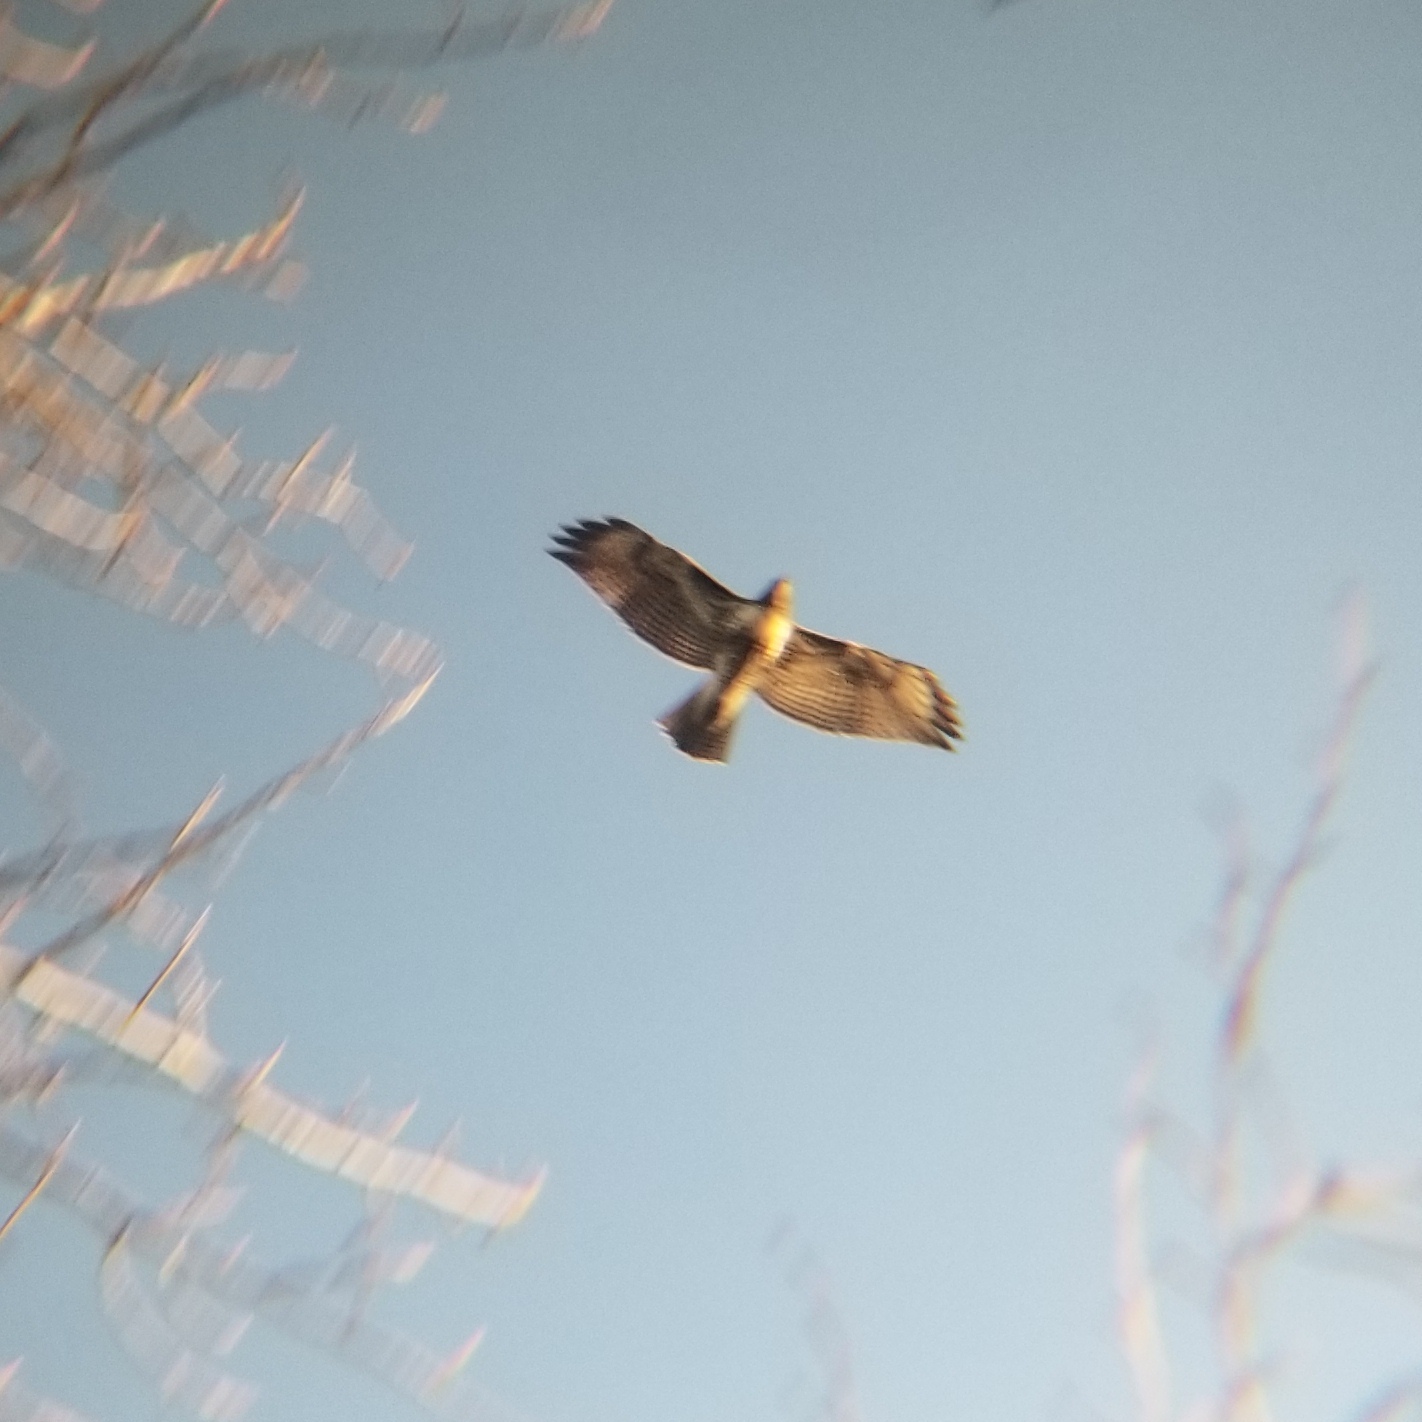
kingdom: Animalia
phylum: Chordata
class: Aves
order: Accipitriformes
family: Accipitridae
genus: Buteo
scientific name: Buteo jamaicensis
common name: Red-tailed hawk
